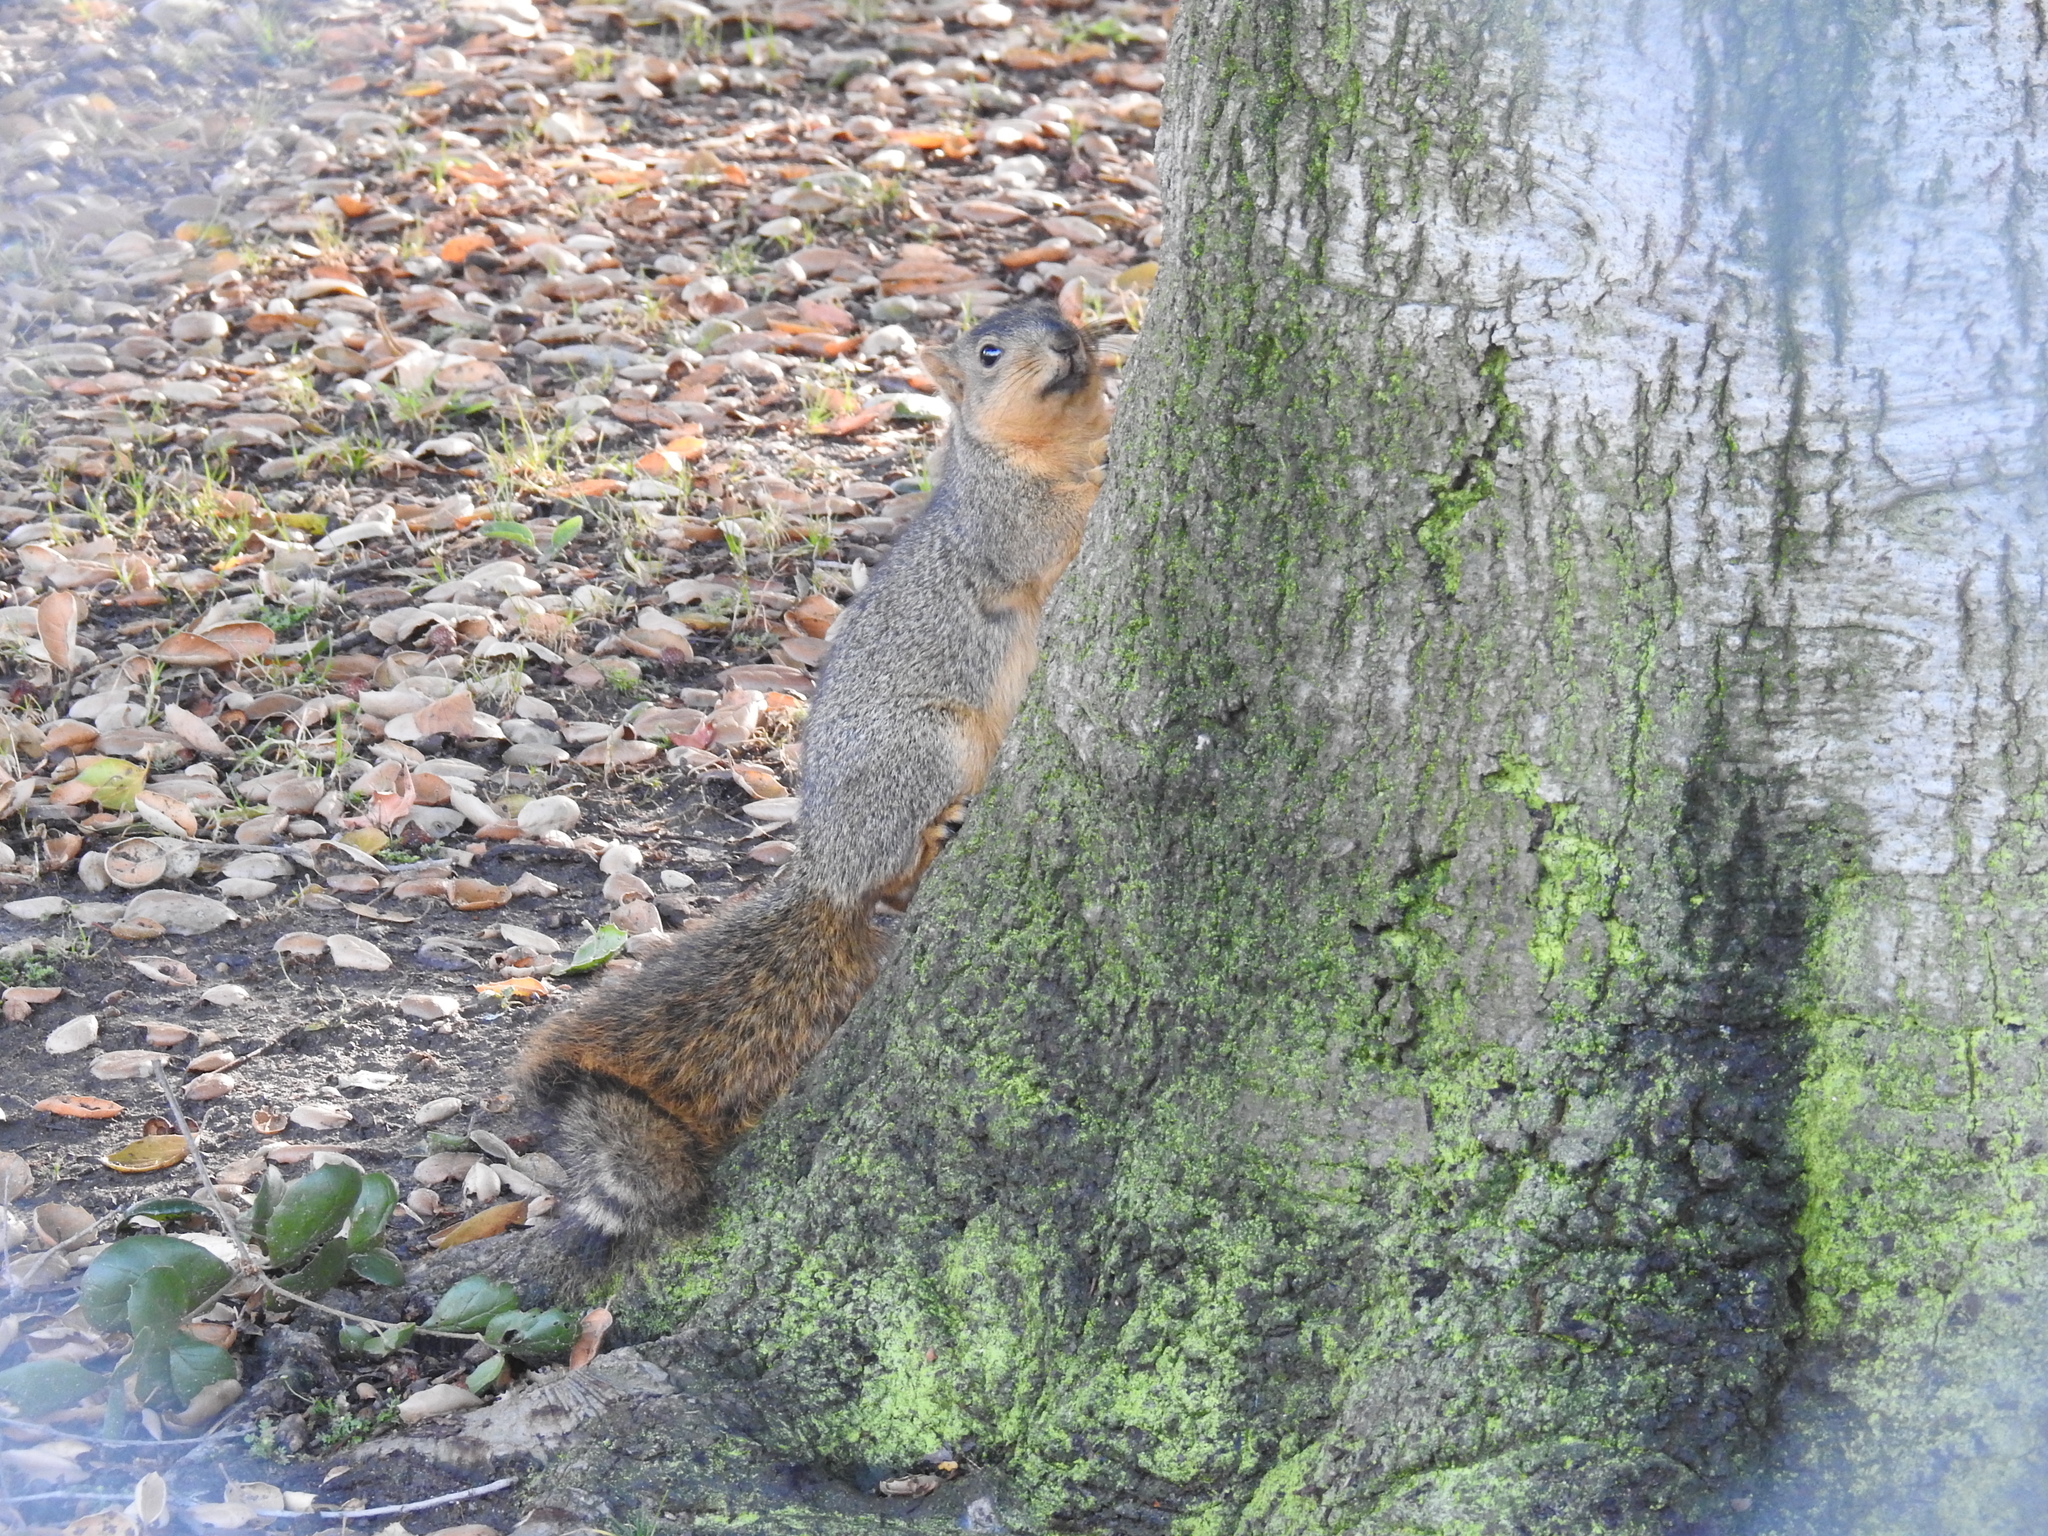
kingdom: Animalia
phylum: Chordata
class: Mammalia
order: Rodentia
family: Sciuridae
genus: Sciurus
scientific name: Sciurus niger
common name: Fox squirrel
